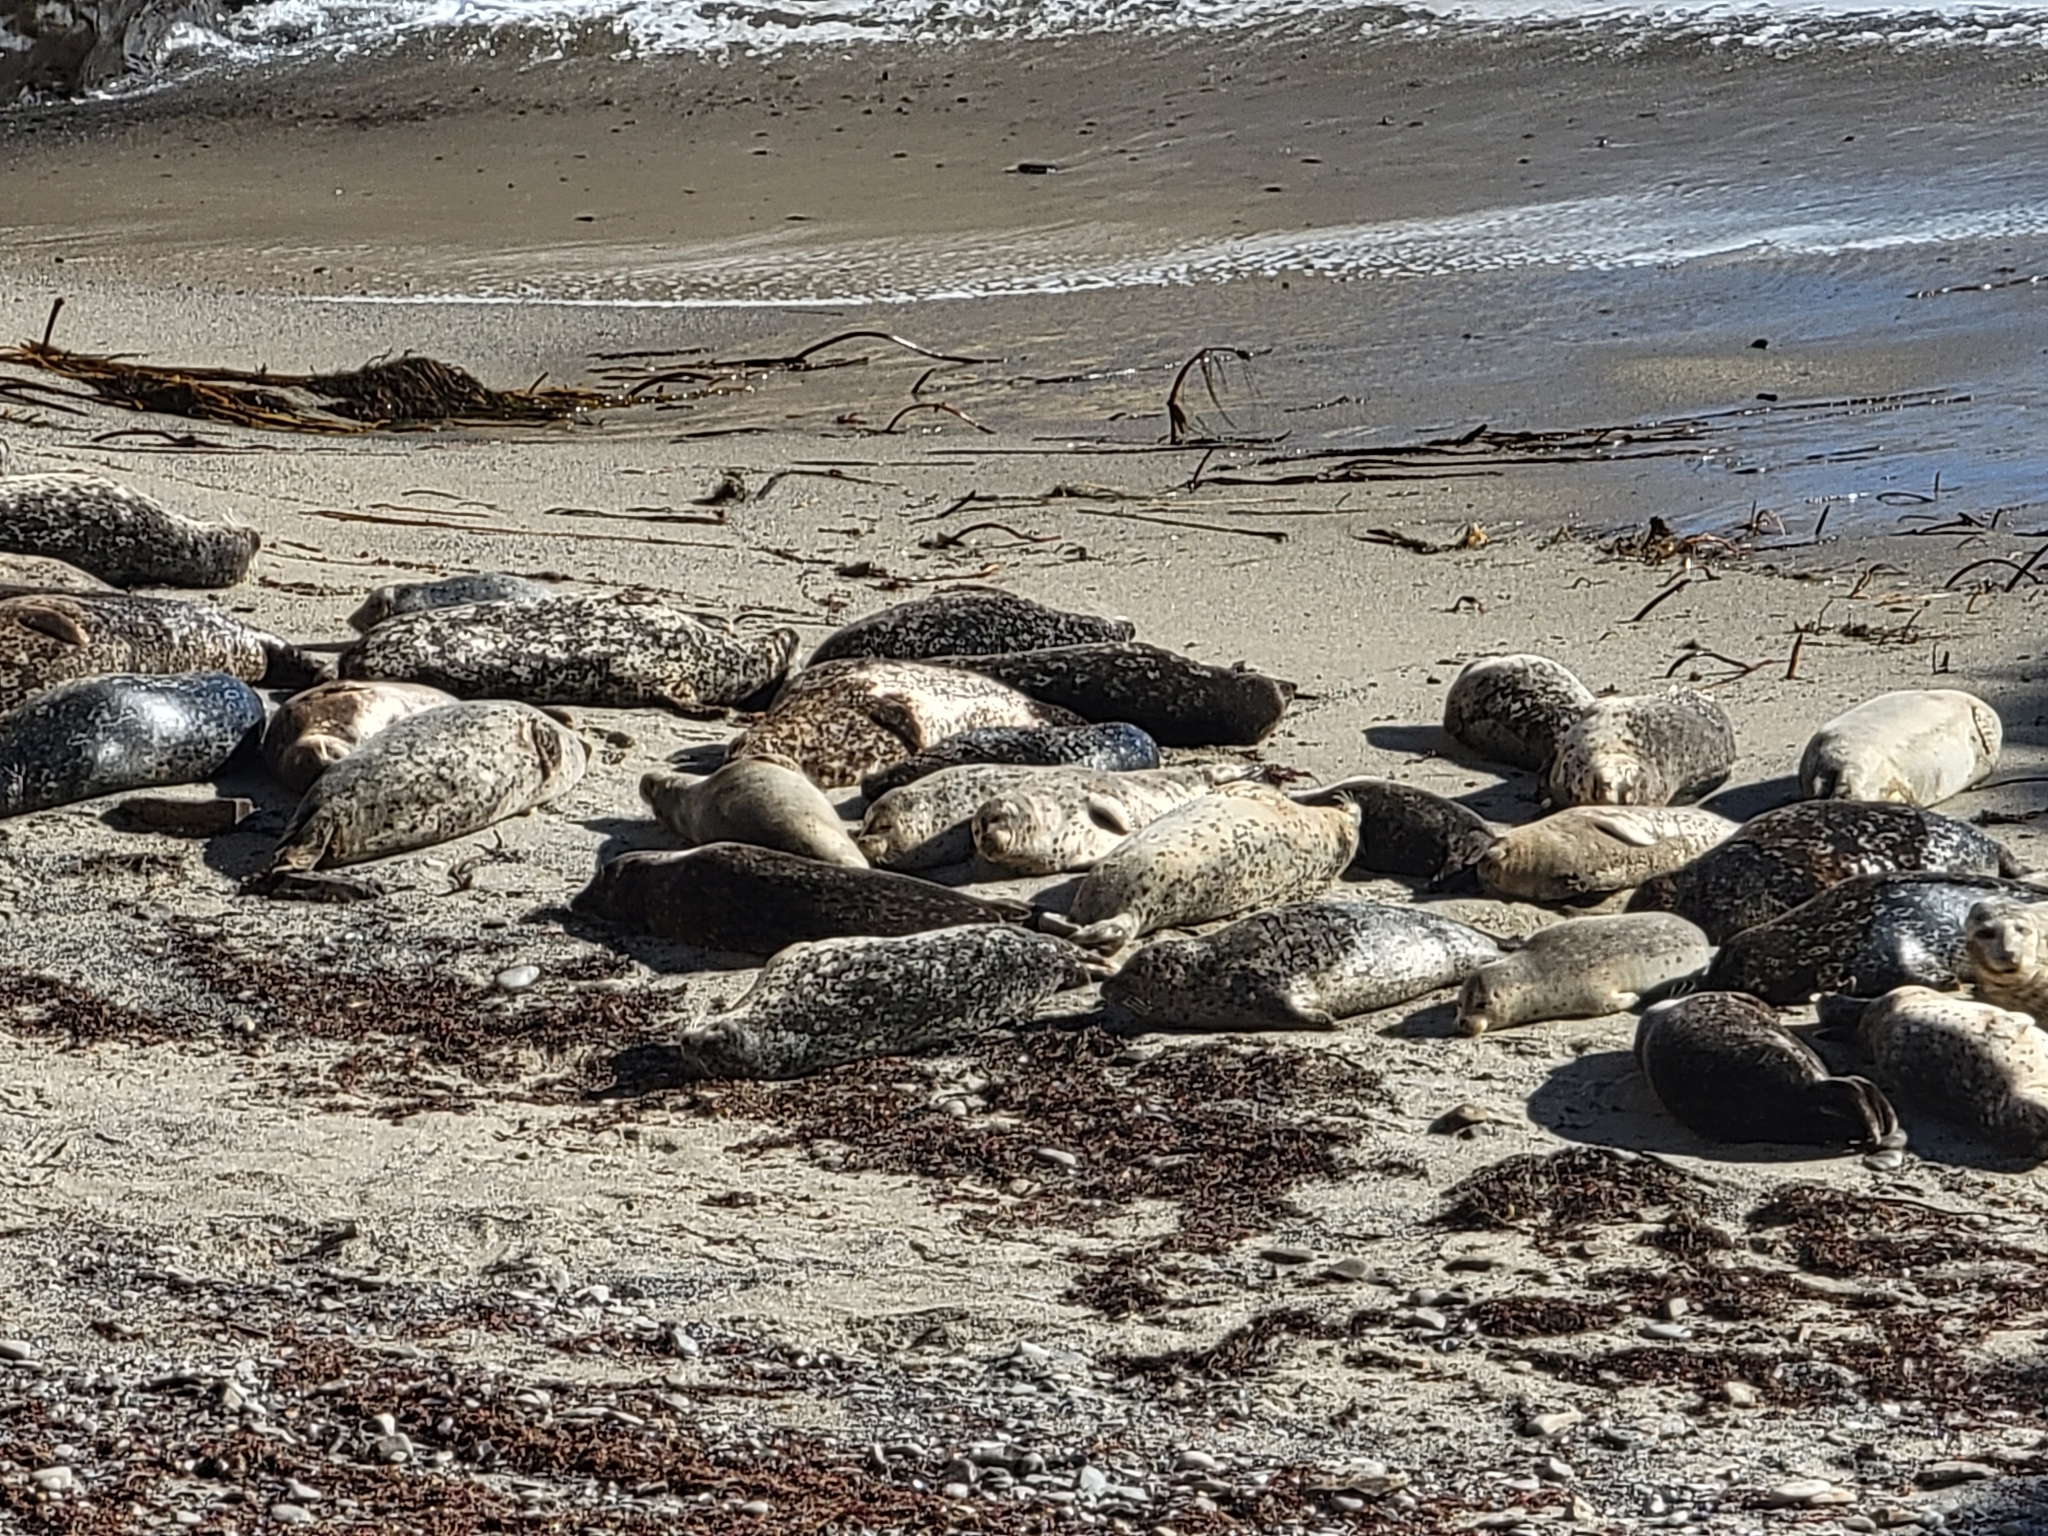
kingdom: Animalia
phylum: Chordata
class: Mammalia
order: Carnivora
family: Phocidae
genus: Phoca
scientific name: Phoca vitulina
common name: Harbor seal
